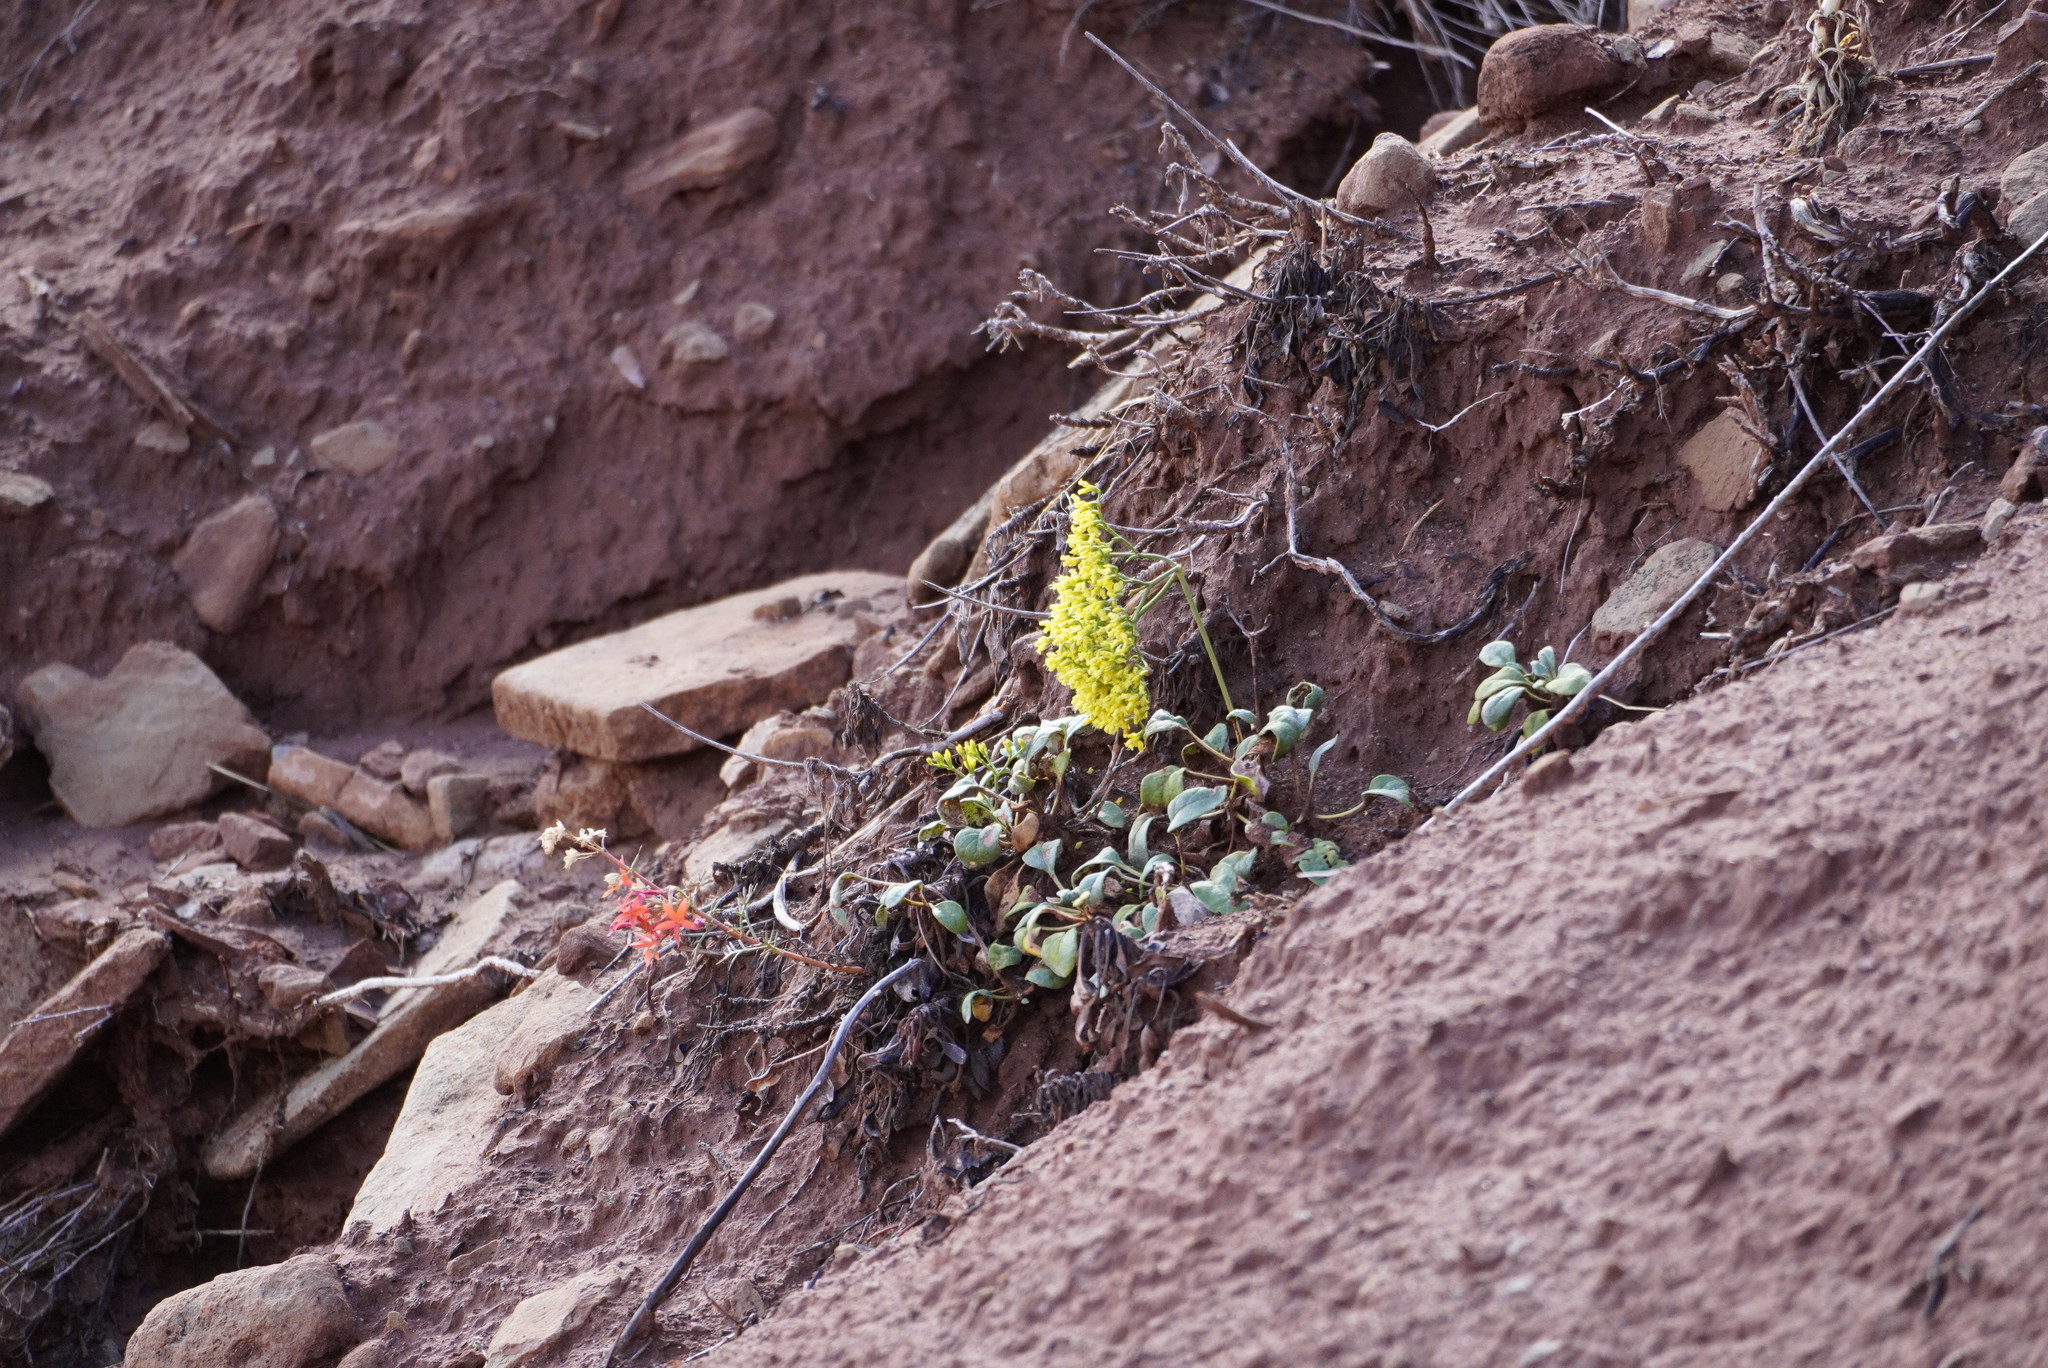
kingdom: Plantae
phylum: Tracheophyta
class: Magnoliopsida
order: Caryophyllales
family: Polygonaceae
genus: Eriogonum
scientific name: Eriogonum thompsoniae
